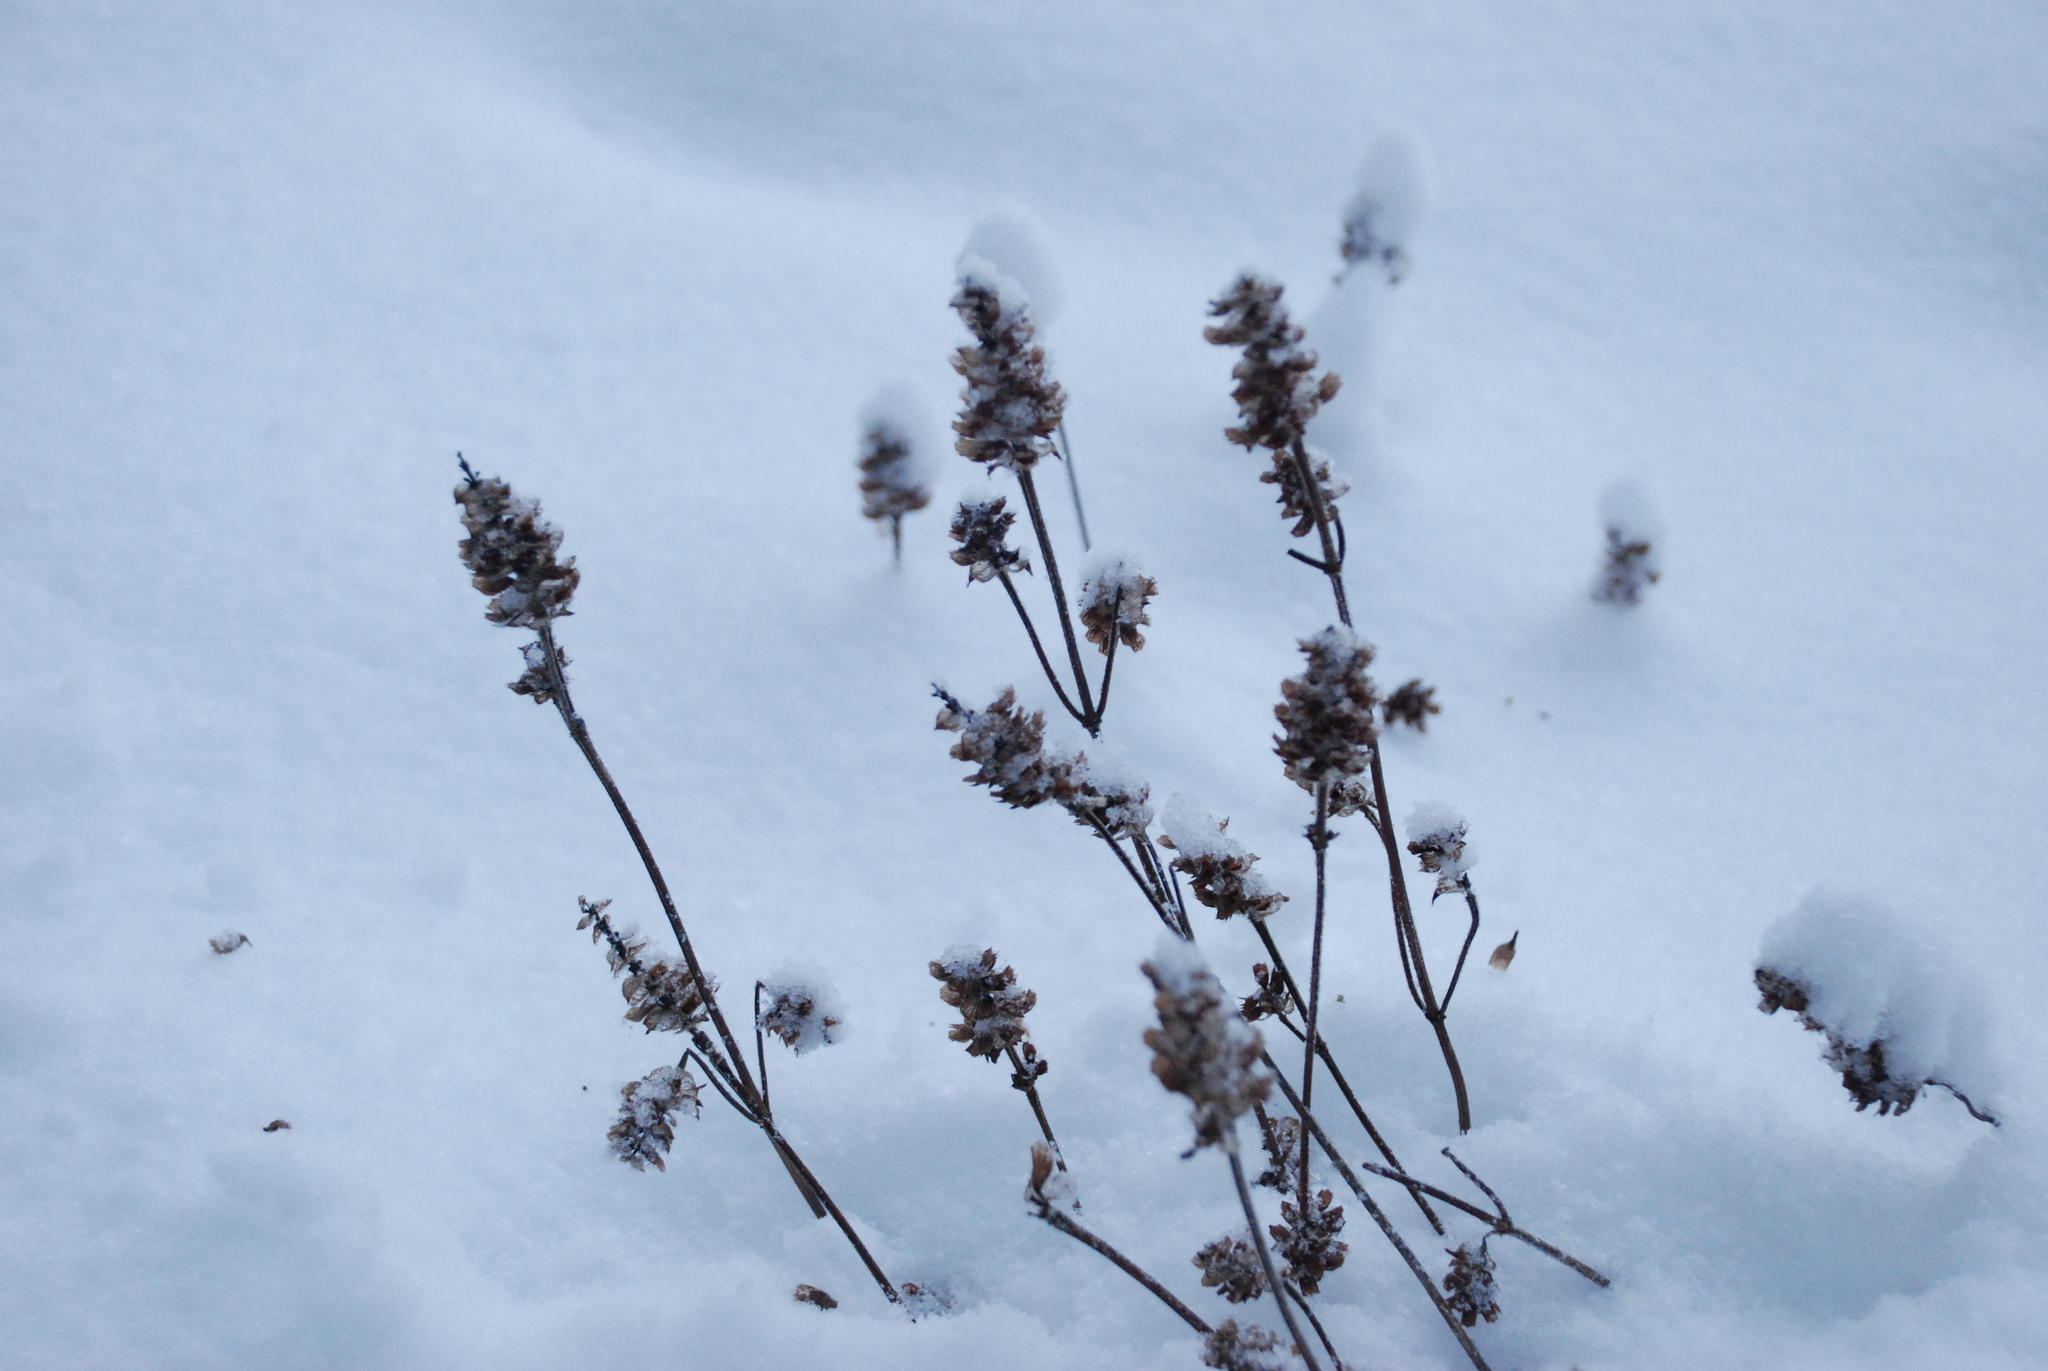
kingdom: Plantae
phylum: Tracheophyta
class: Magnoliopsida
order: Lamiales
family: Lamiaceae
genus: Prunella
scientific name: Prunella vulgaris
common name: Heal-all
